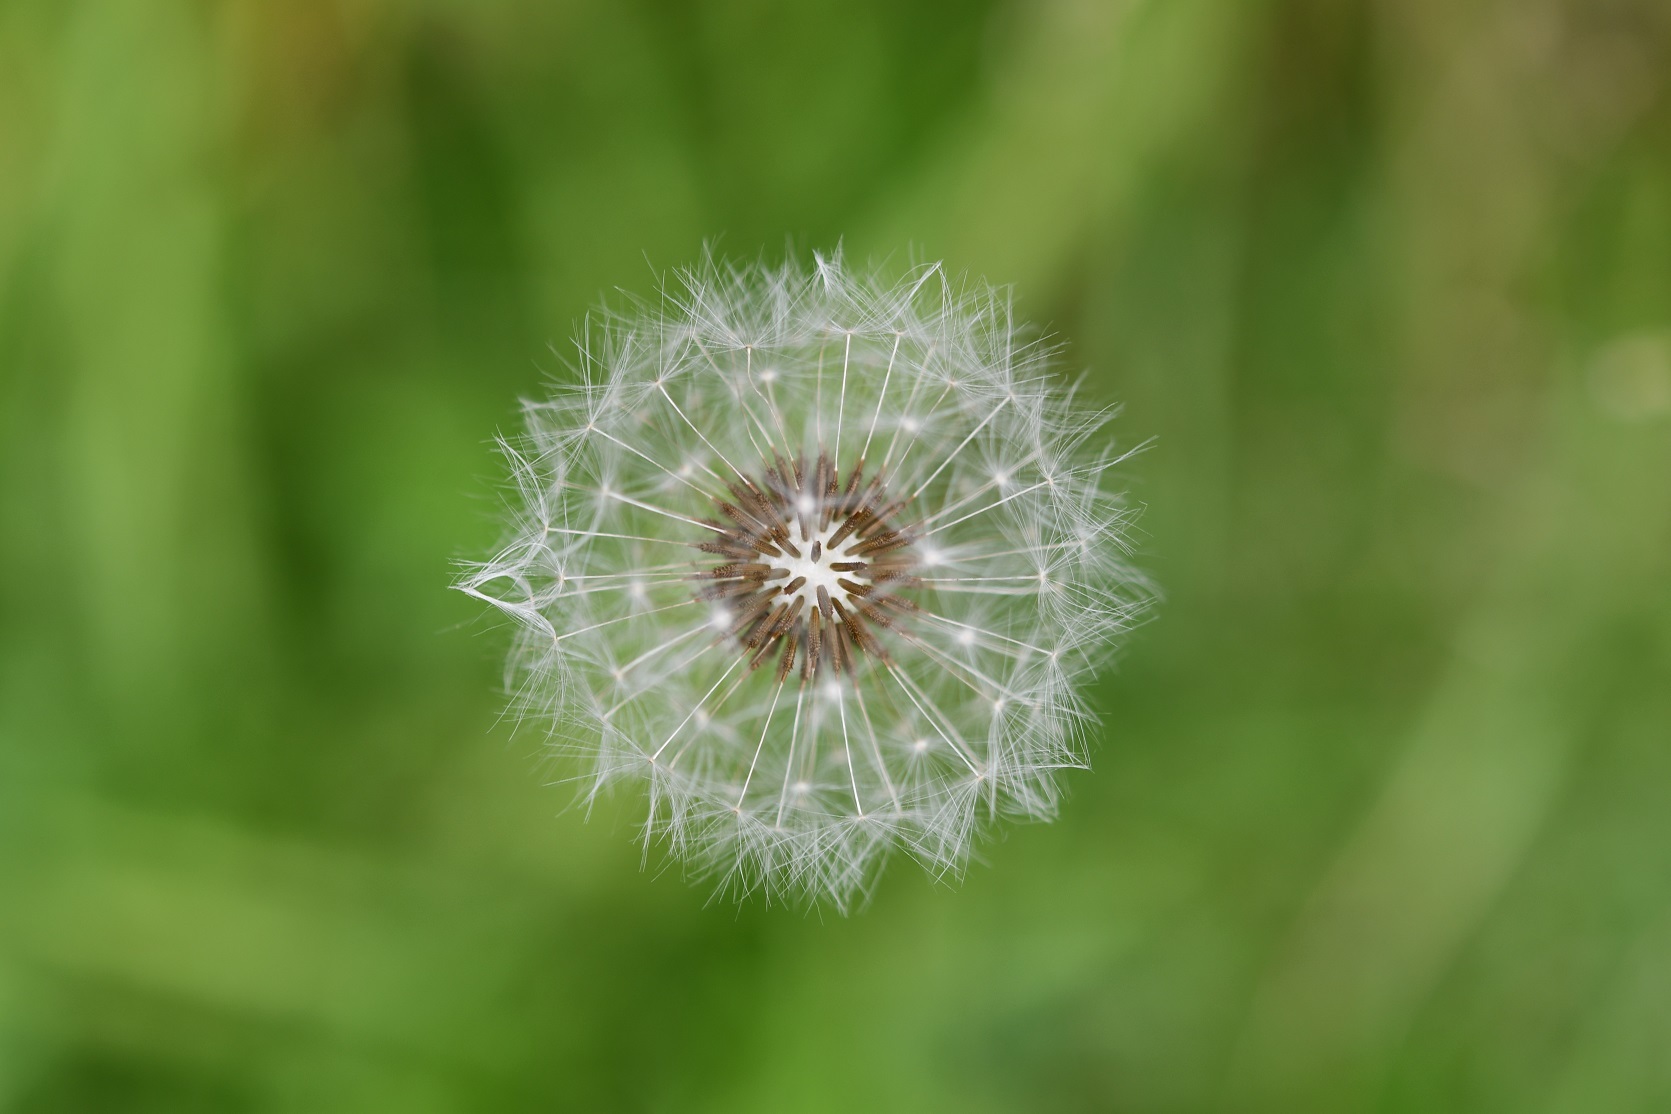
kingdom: Plantae
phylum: Tracheophyta
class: Magnoliopsida
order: Asterales
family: Asteraceae
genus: Taraxacum
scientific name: Taraxacum officinale
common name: Common dandelion
